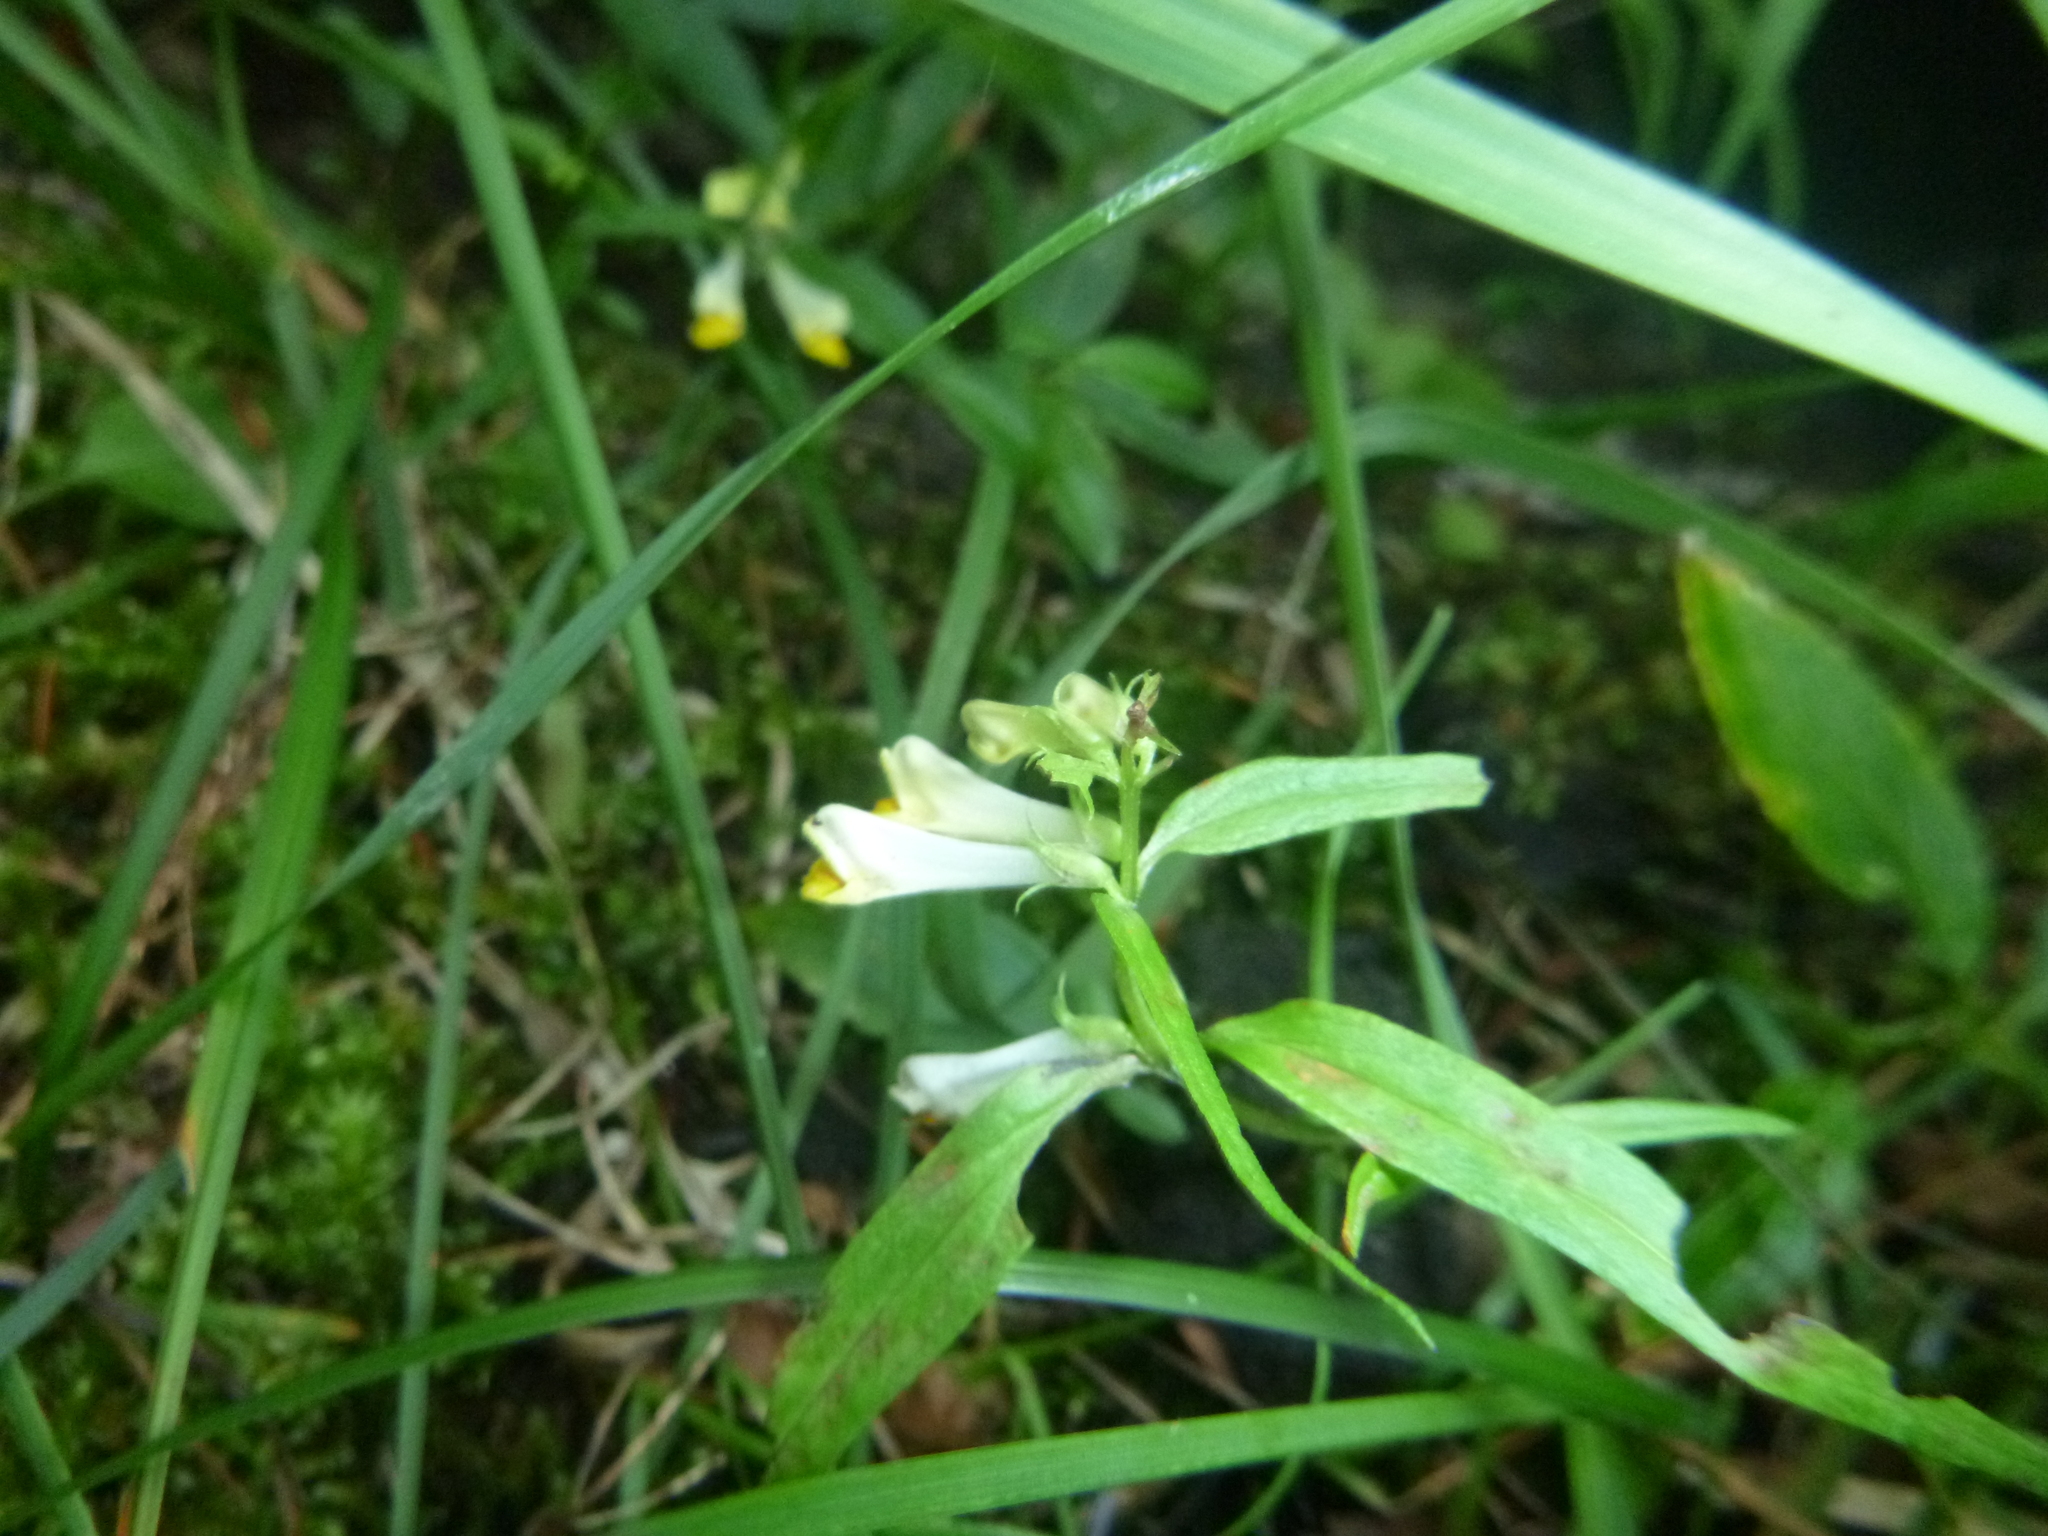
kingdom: Plantae
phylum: Tracheophyta
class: Magnoliopsida
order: Lamiales
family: Orobanchaceae
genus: Melampyrum
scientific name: Melampyrum pratense
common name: Common cow-wheat
